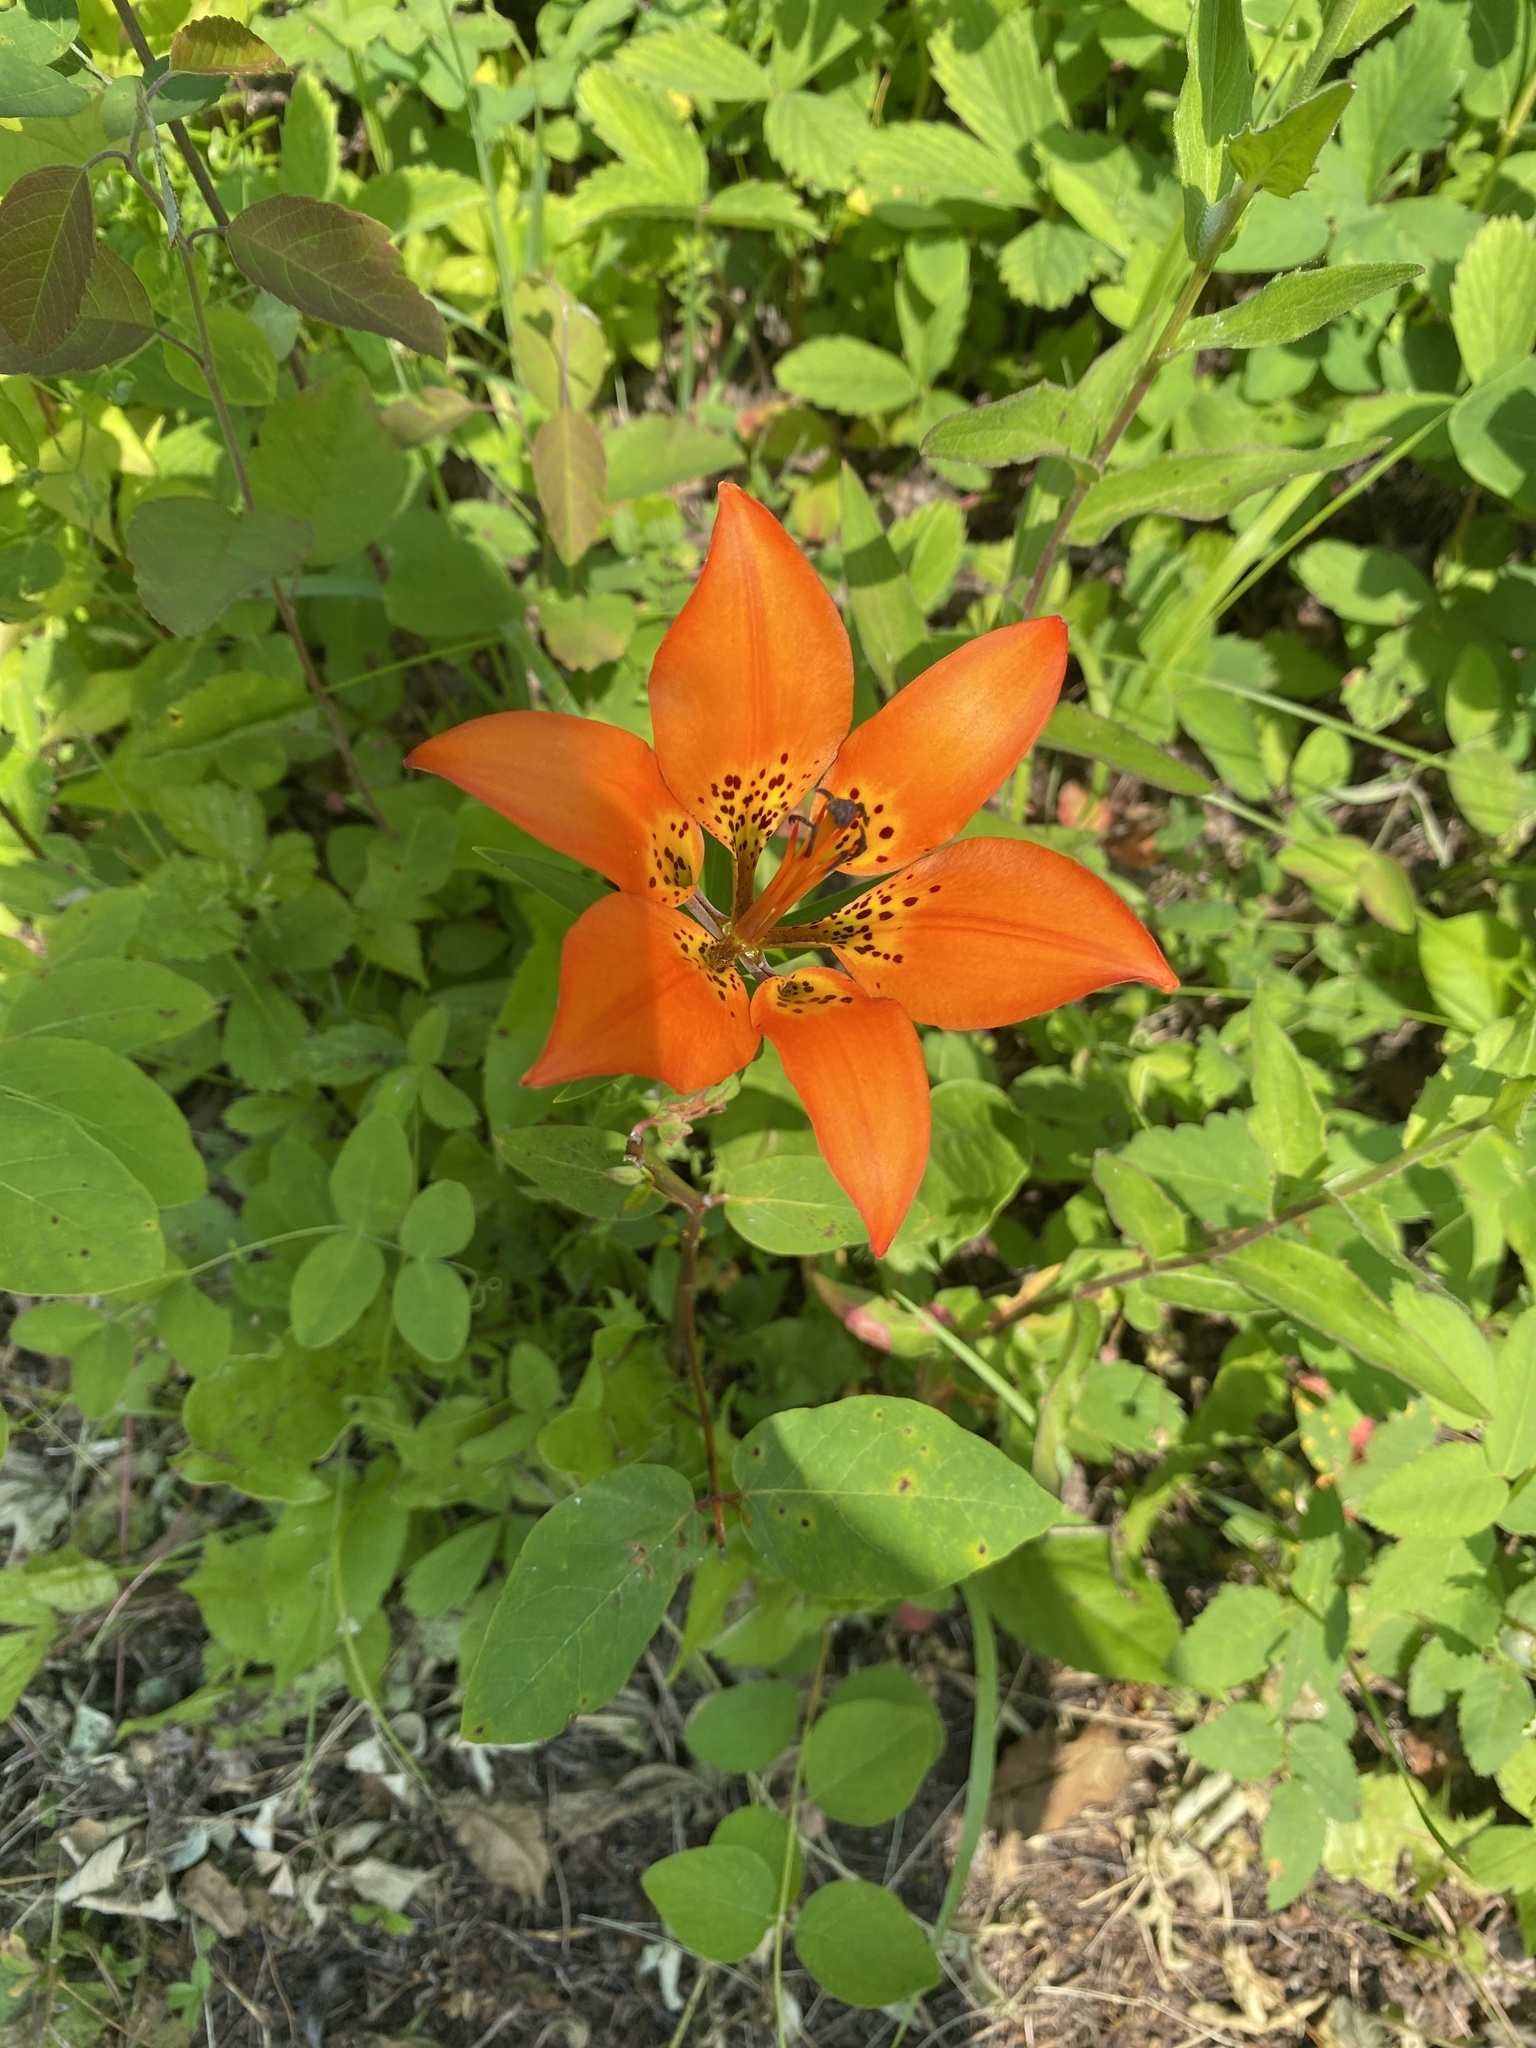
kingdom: Plantae
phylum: Tracheophyta
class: Liliopsida
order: Liliales
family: Liliaceae
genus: Lilium
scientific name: Lilium philadelphicum
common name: Red lily
